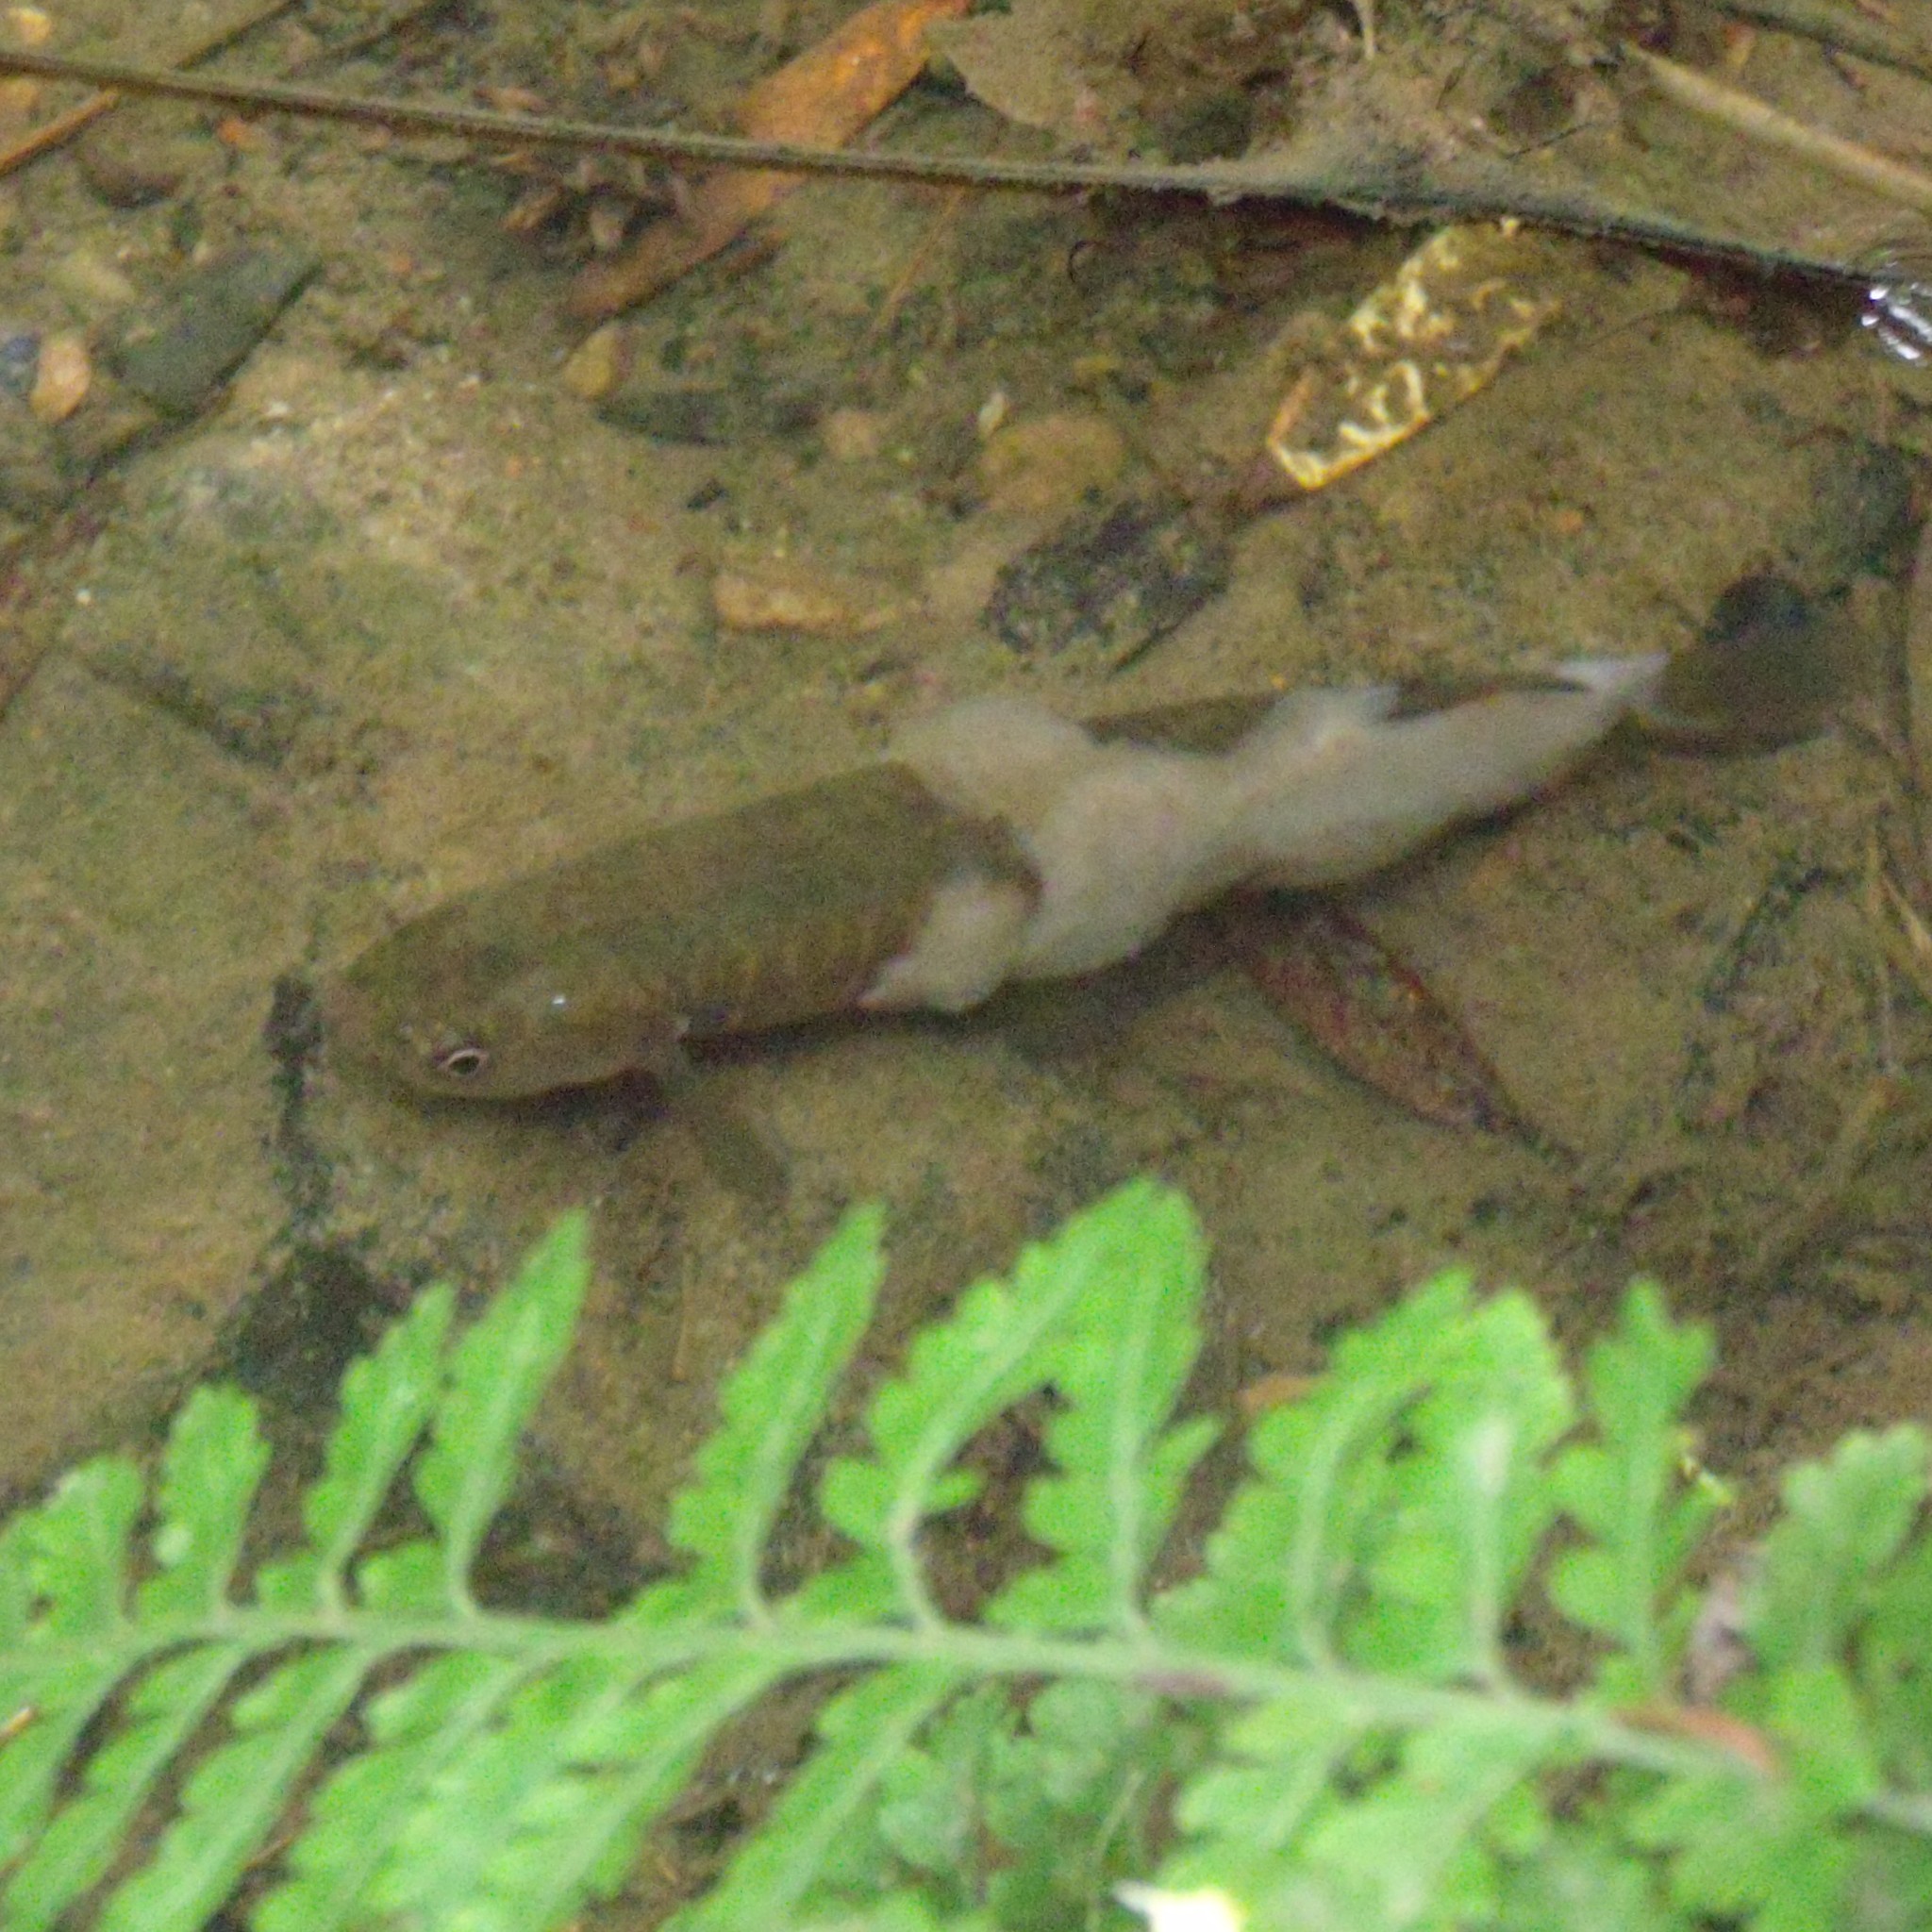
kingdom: Animalia
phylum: Chordata
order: Osmeriformes
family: Galaxiidae
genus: Galaxias
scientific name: Galaxias fasciatus
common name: Banded kokopu
